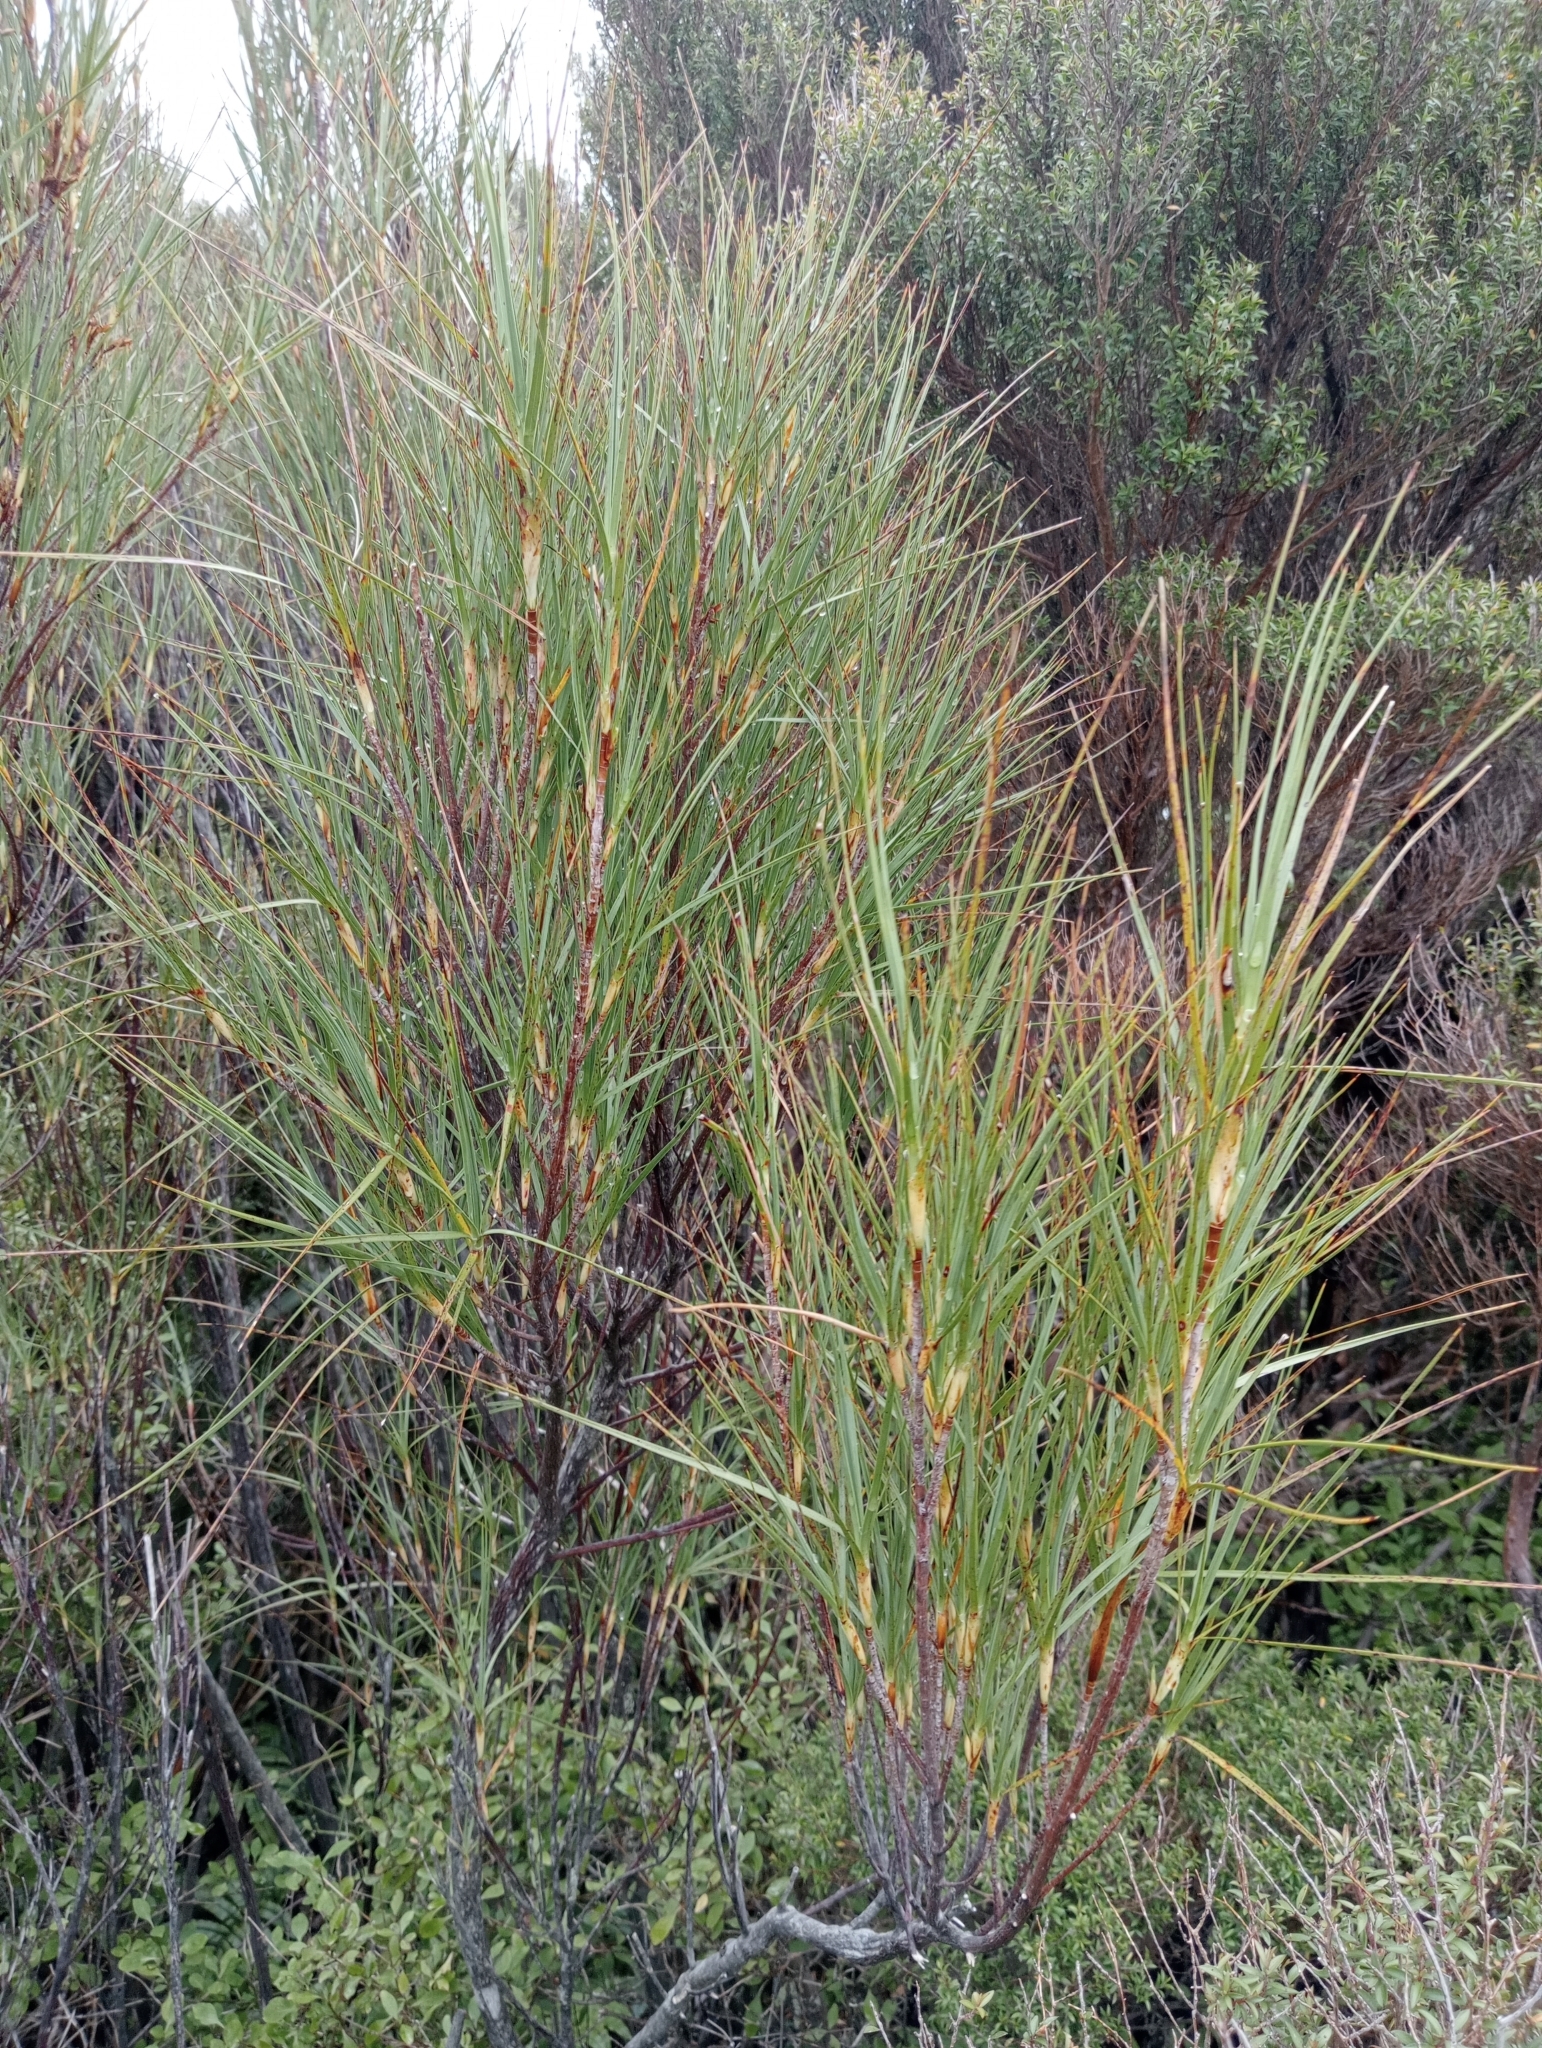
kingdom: Plantae
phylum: Tracheophyta
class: Magnoliopsida
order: Ericales
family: Ericaceae
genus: Dracophyllum
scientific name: Dracophyllum longifolium
